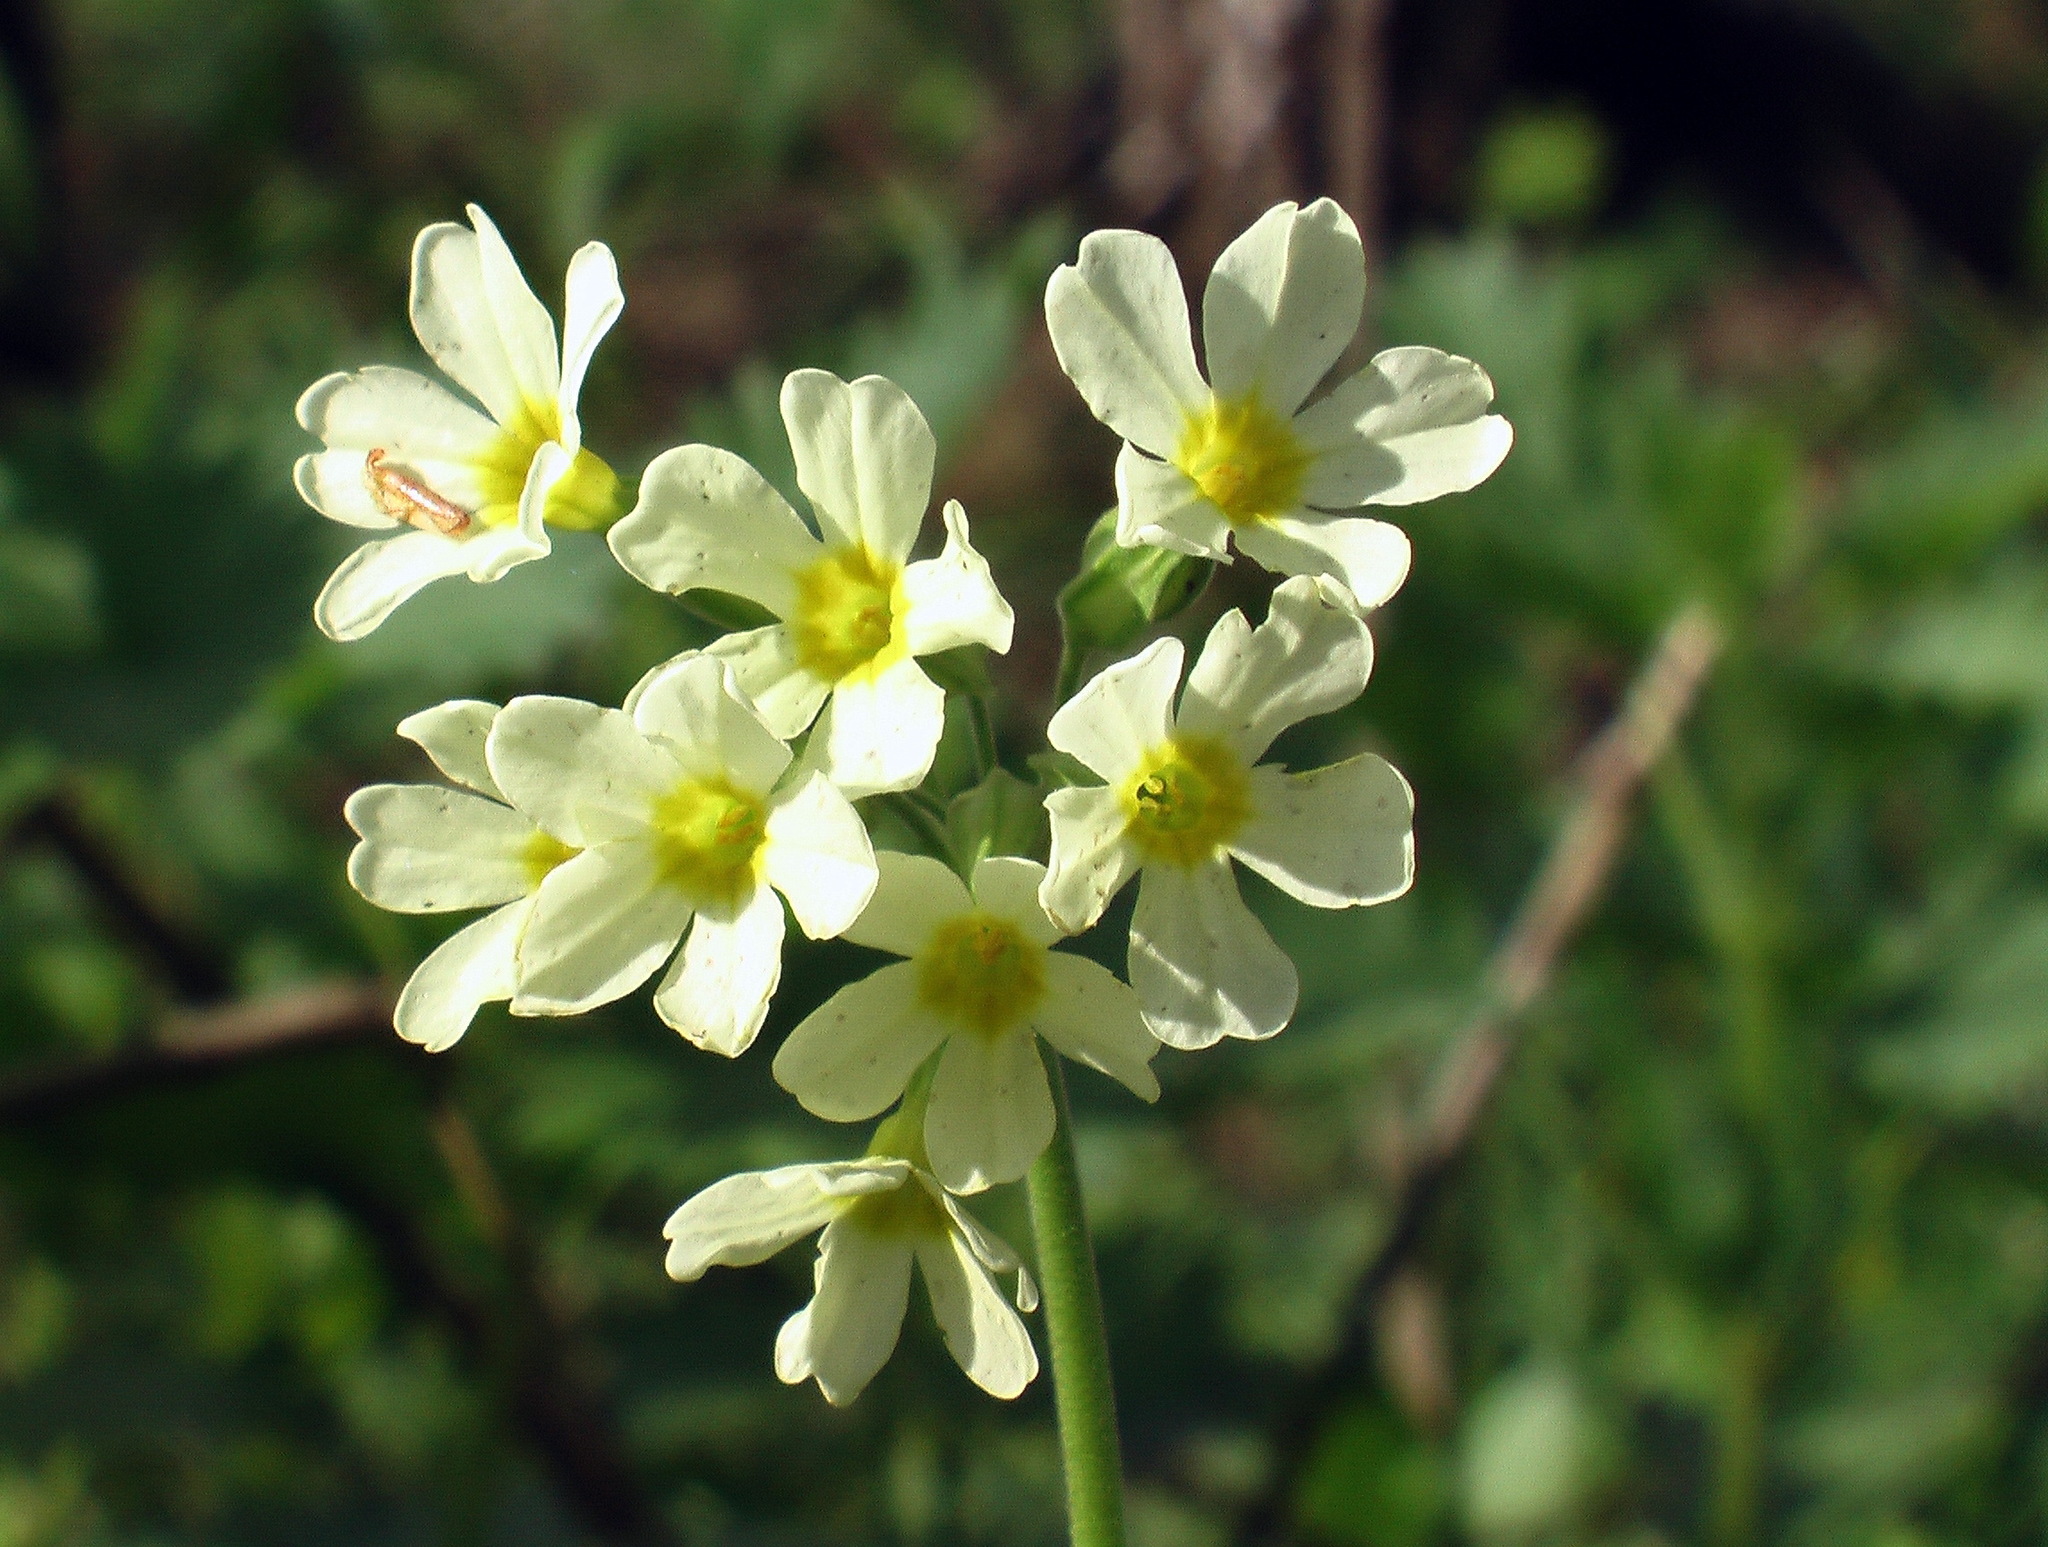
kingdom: Plantae
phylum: Tracheophyta
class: Magnoliopsida
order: Ericales
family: Primulaceae
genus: Primula
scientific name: Primula elatior
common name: Oxlip
